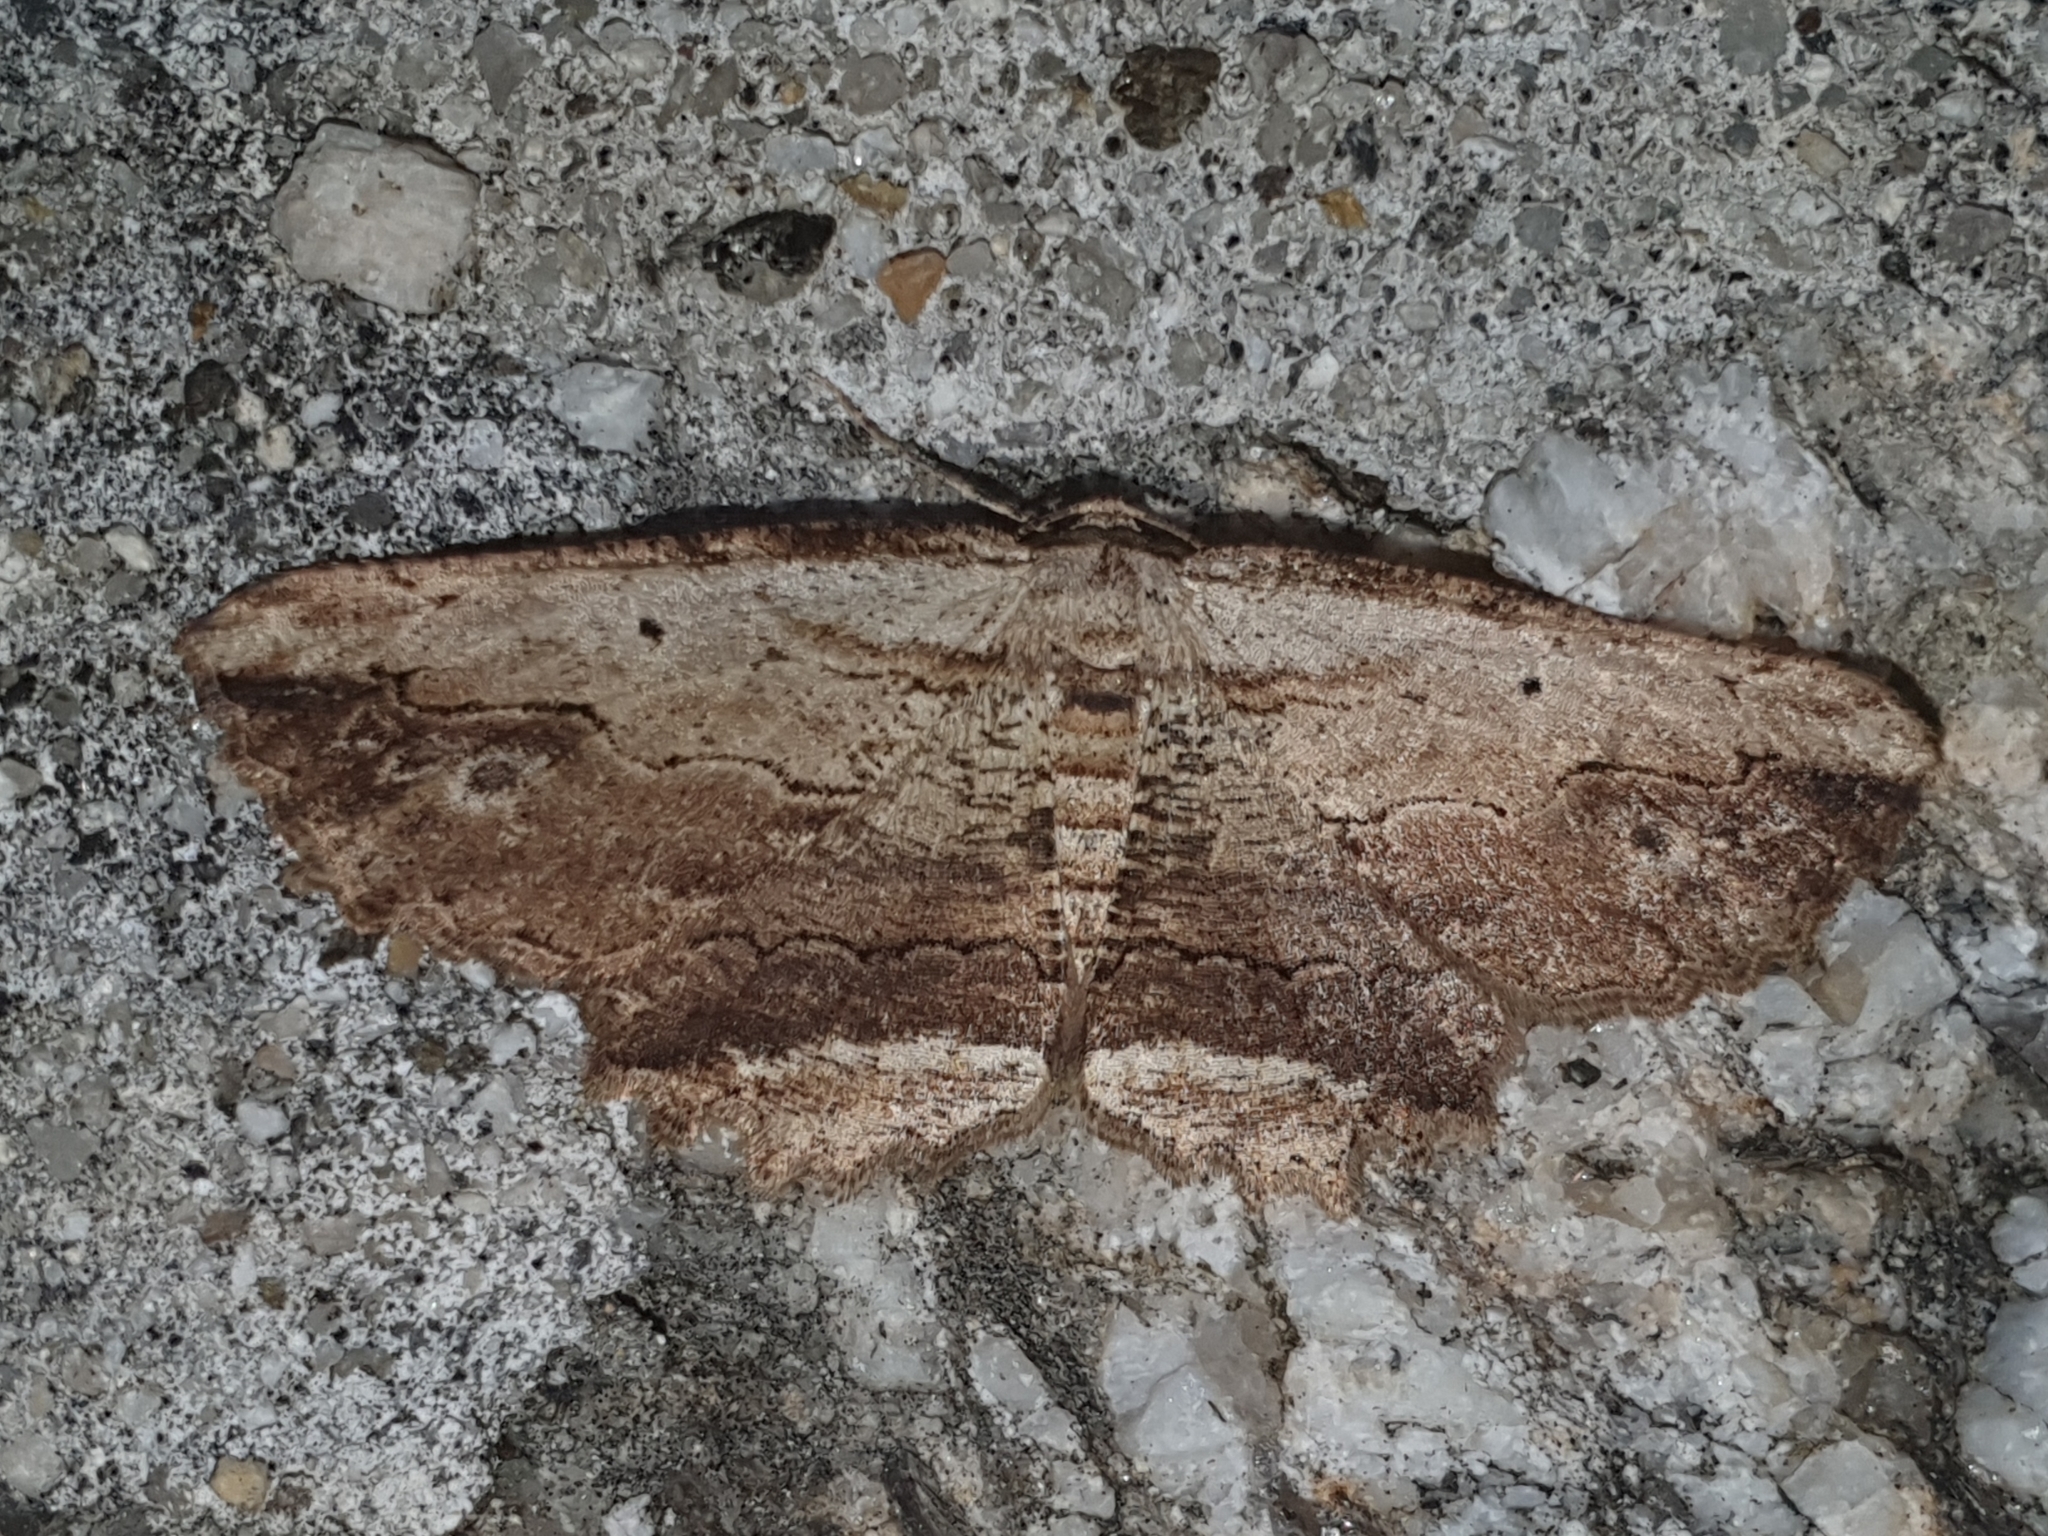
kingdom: Animalia
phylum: Arthropoda
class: Insecta
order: Lepidoptera
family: Geometridae
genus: Menophra
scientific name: Menophra abruptaria
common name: Waved umber
